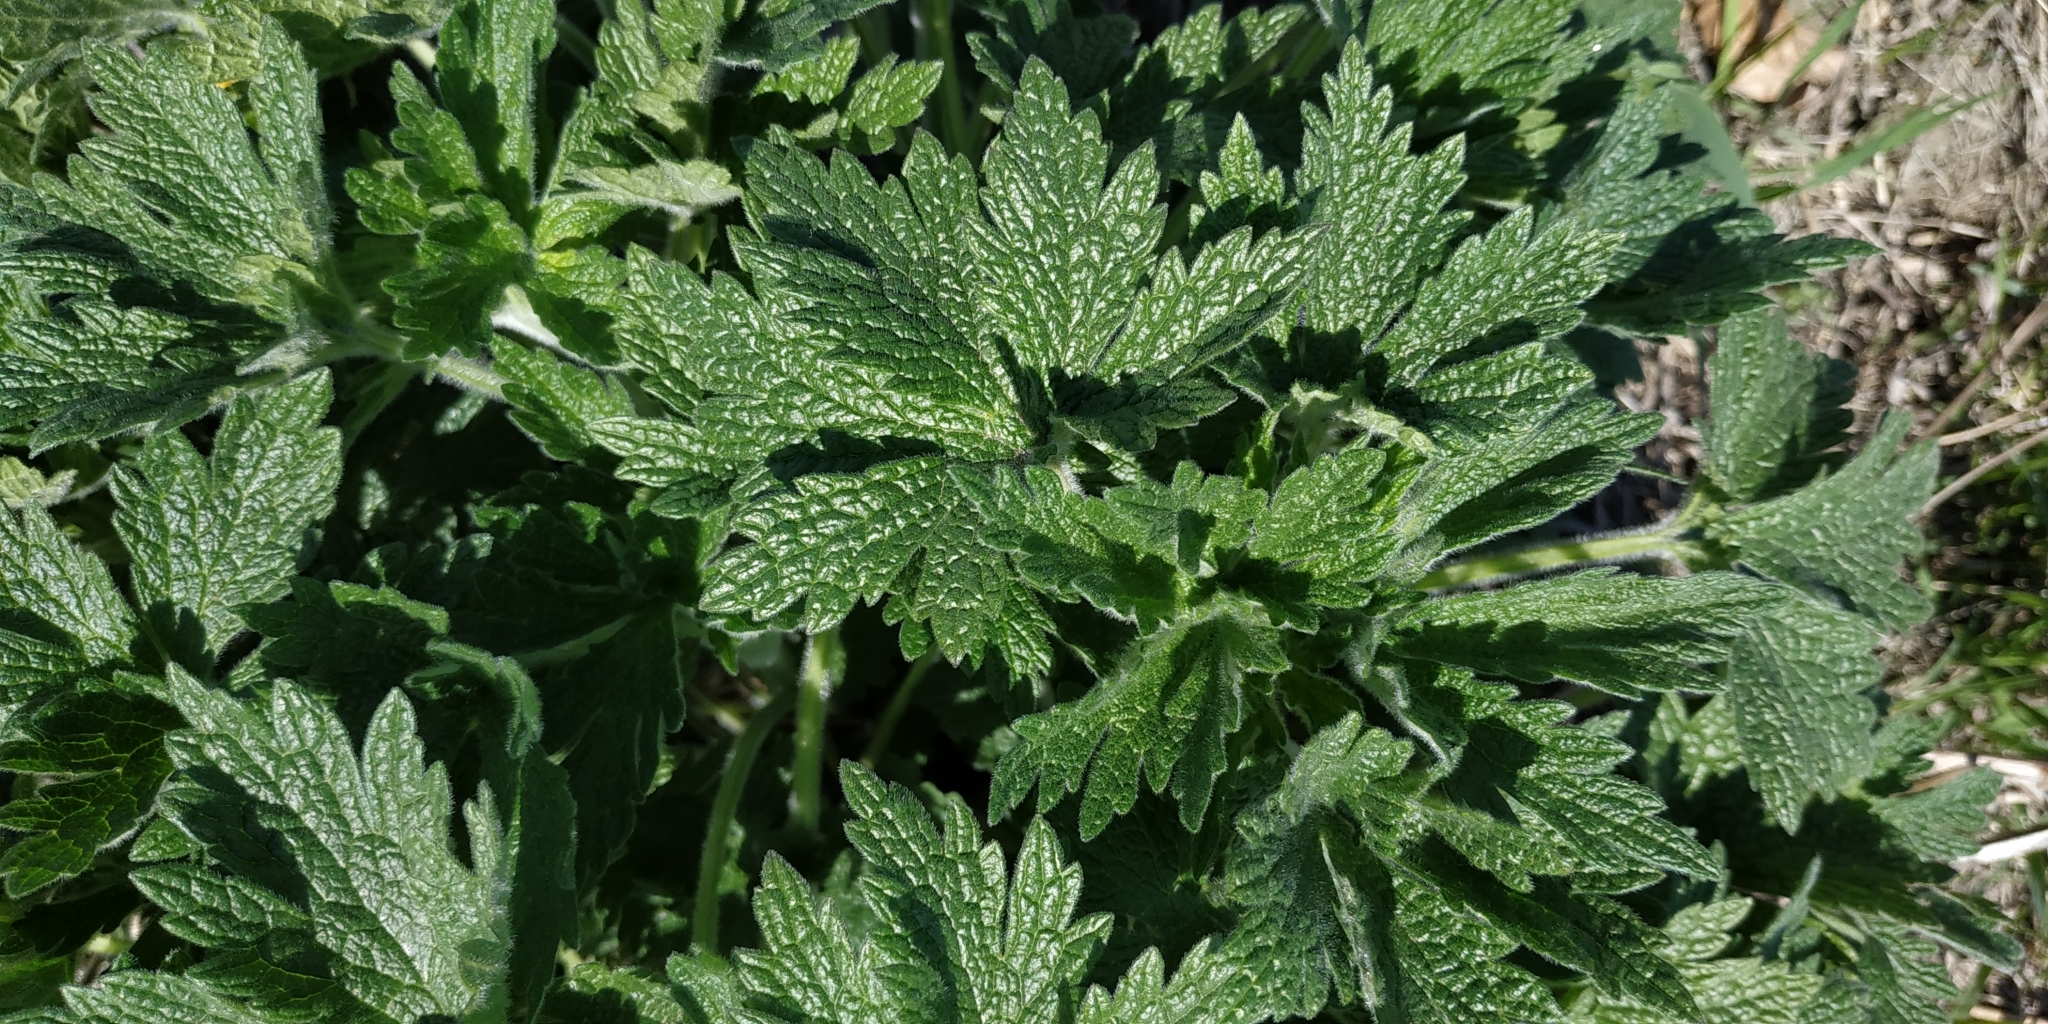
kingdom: Plantae
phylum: Tracheophyta
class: Magnoliopsida
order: Lamiales
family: Lamiaceae
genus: Leonurus
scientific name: Leonurus quinquelobatus
